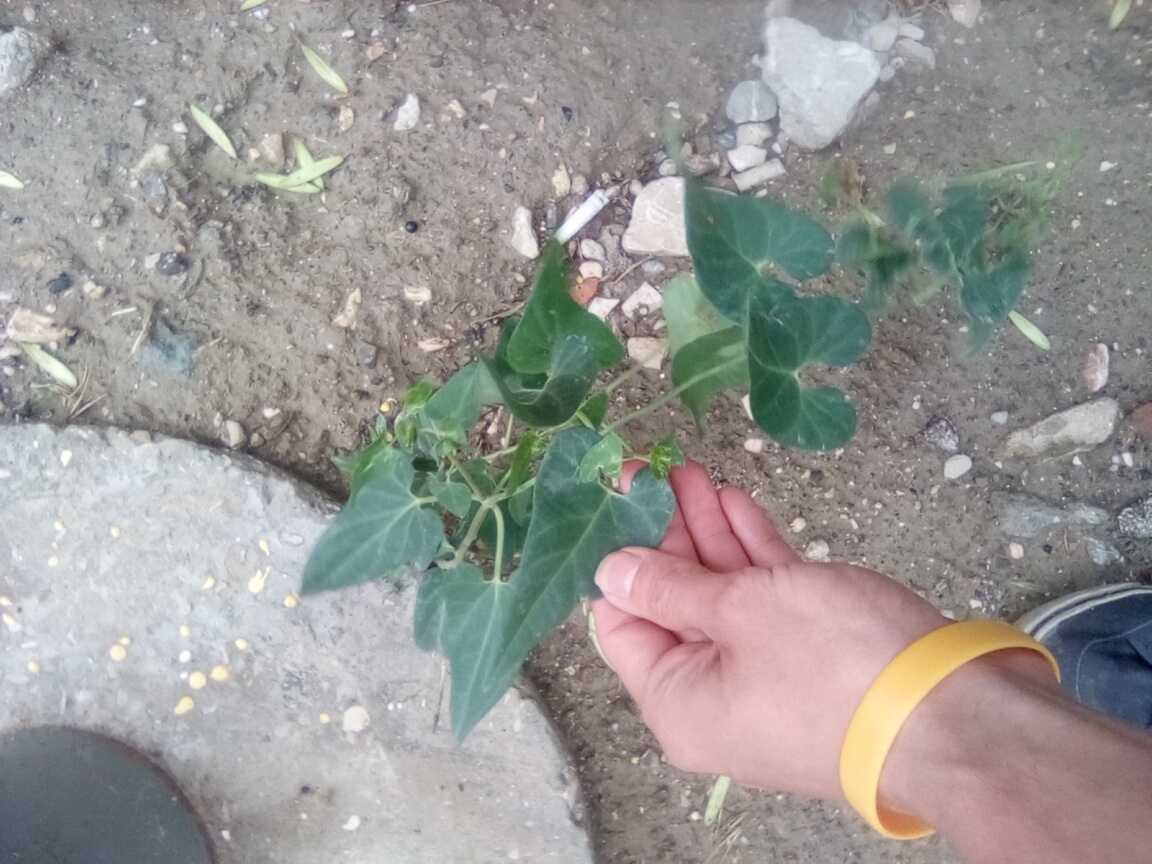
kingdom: Plantae
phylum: Tracheophyta
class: Magnoliopsida
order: Gentianales
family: Apocynaceae
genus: Cynanchum
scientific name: Cynanchum acutum
